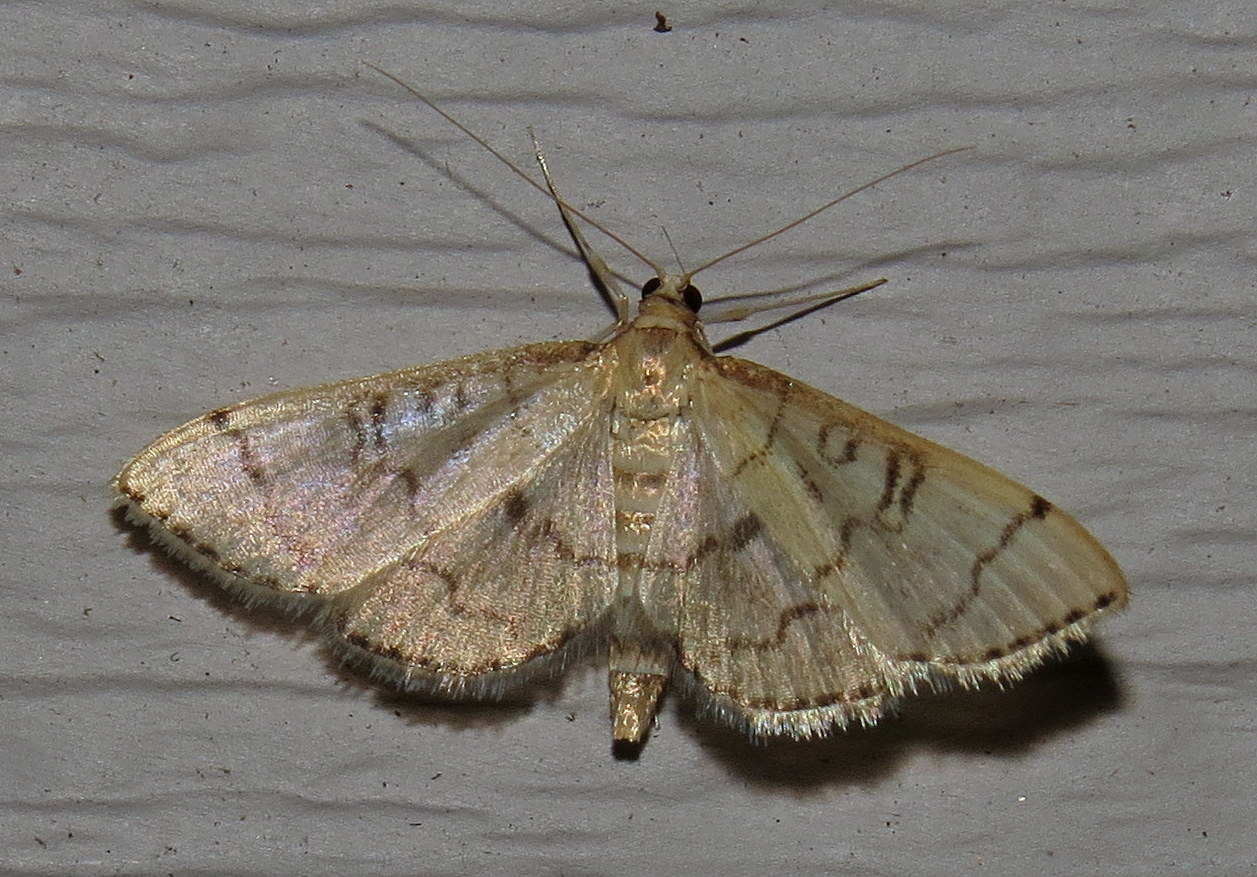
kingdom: Animalia
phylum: Arthropoda
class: Insecta
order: Lepidoptera
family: Crambidae
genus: Lamprosema
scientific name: Lamprosema Blepharomastix ranalis
